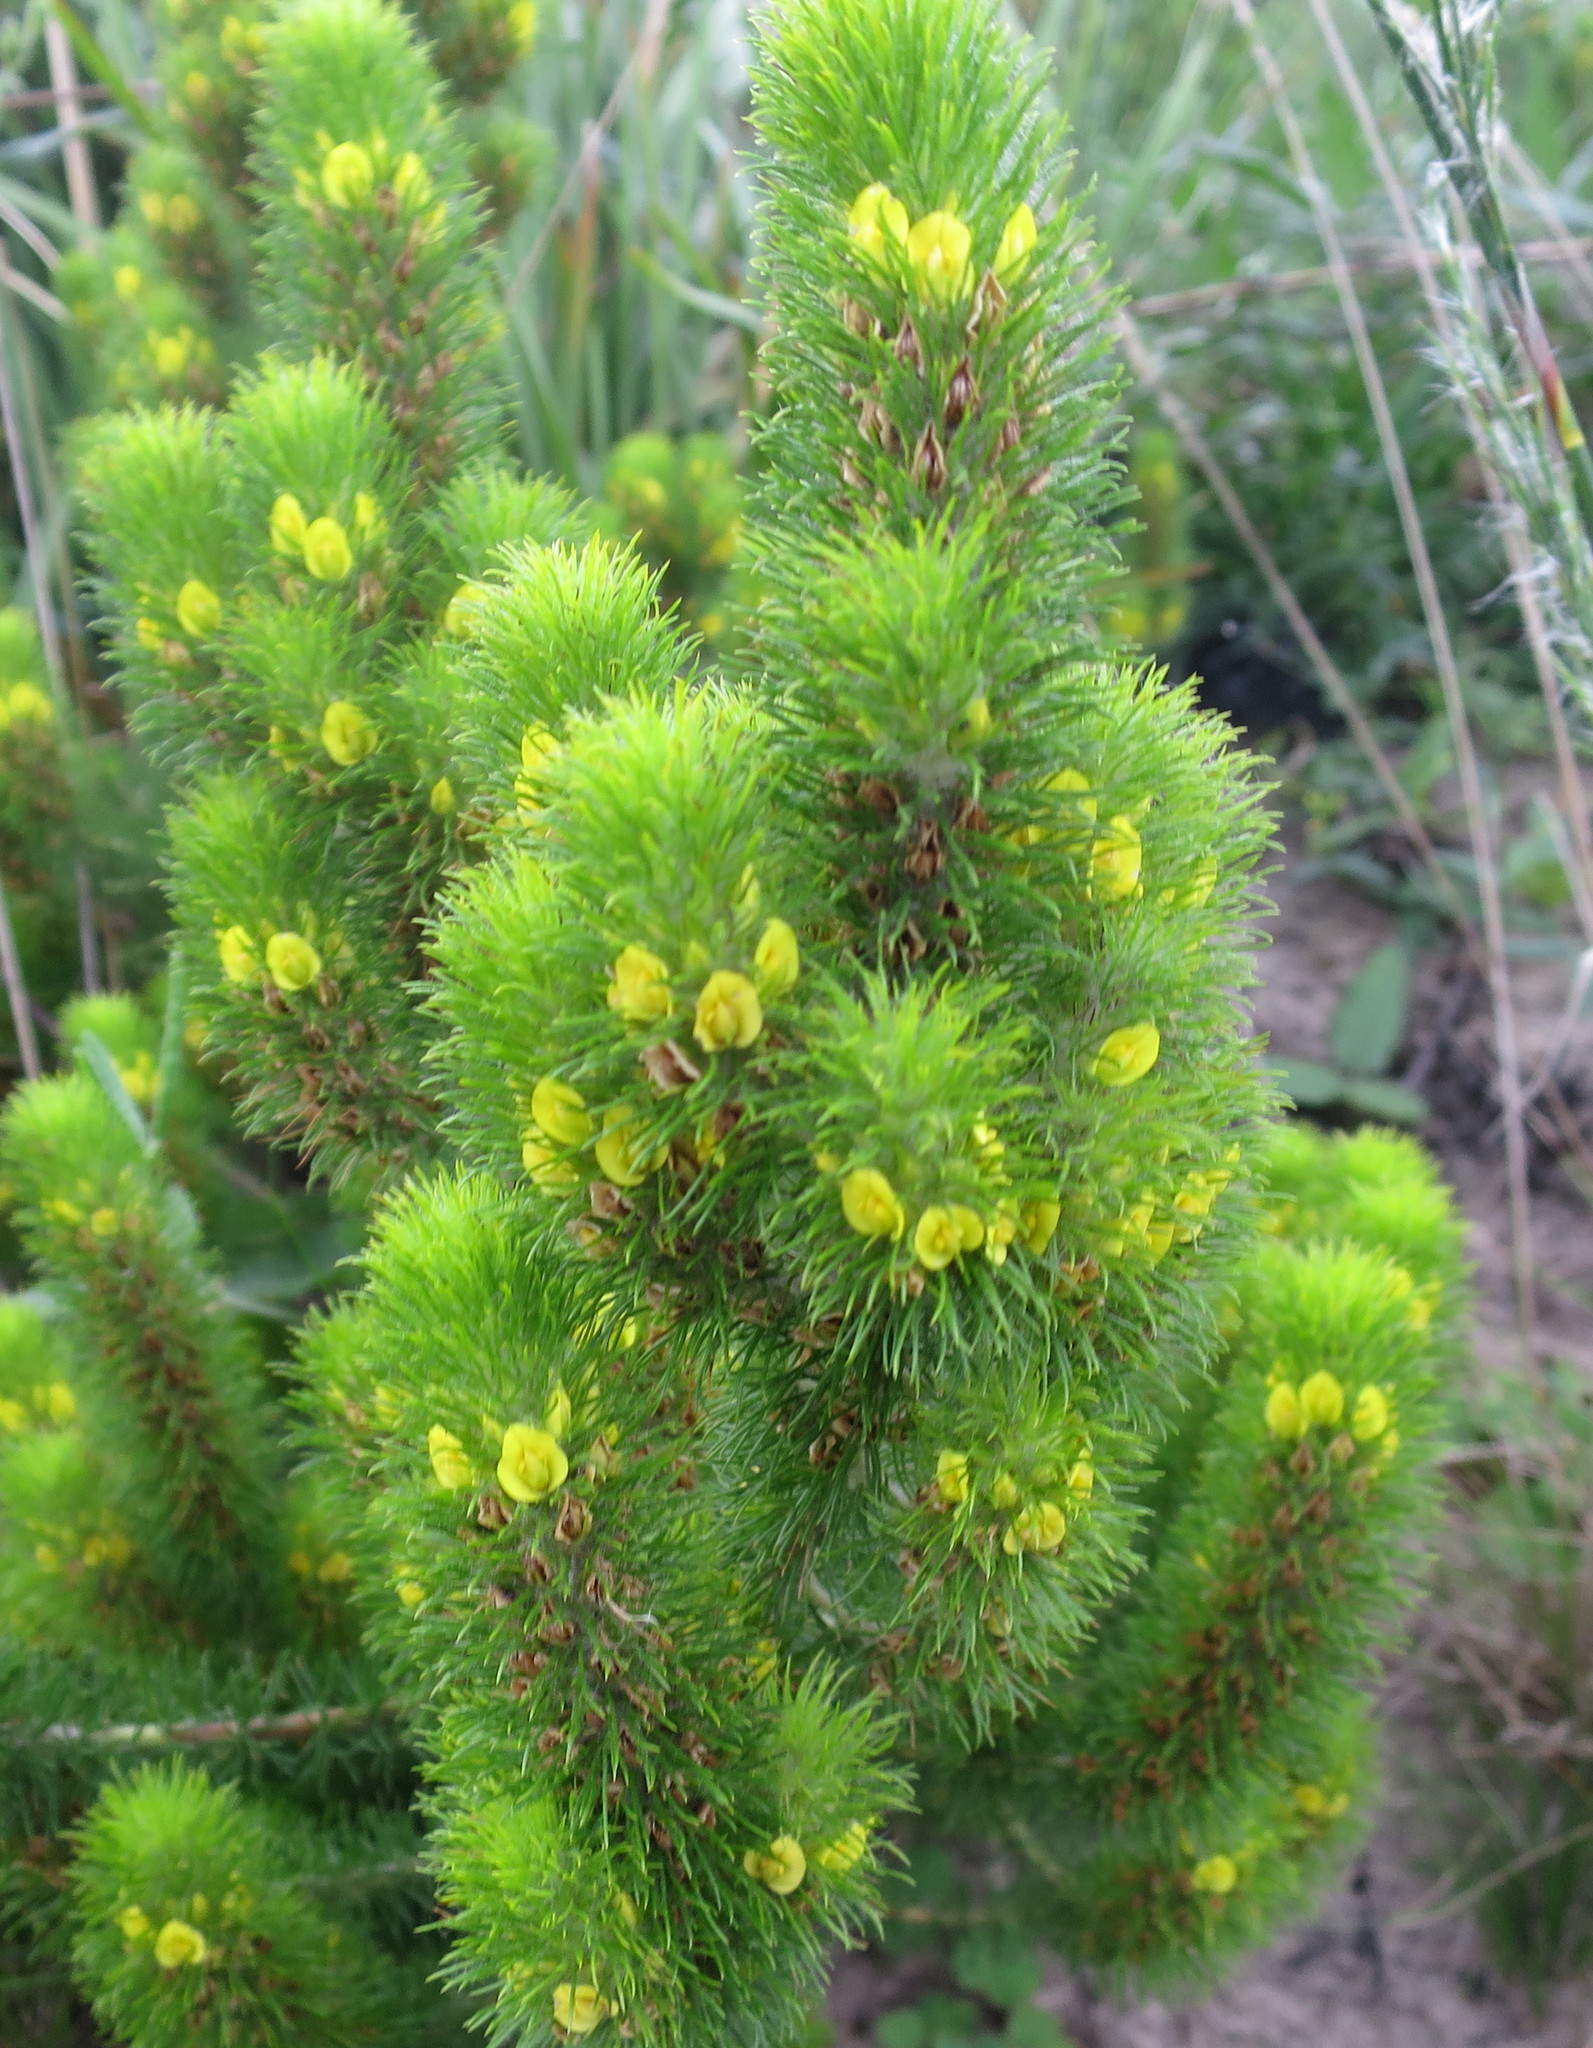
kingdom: Plantae
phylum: Tracheophyta
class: Magnoliopsida
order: Fabales
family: Fabaceae
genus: Aspalathus
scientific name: Aspalathus alopecurus
